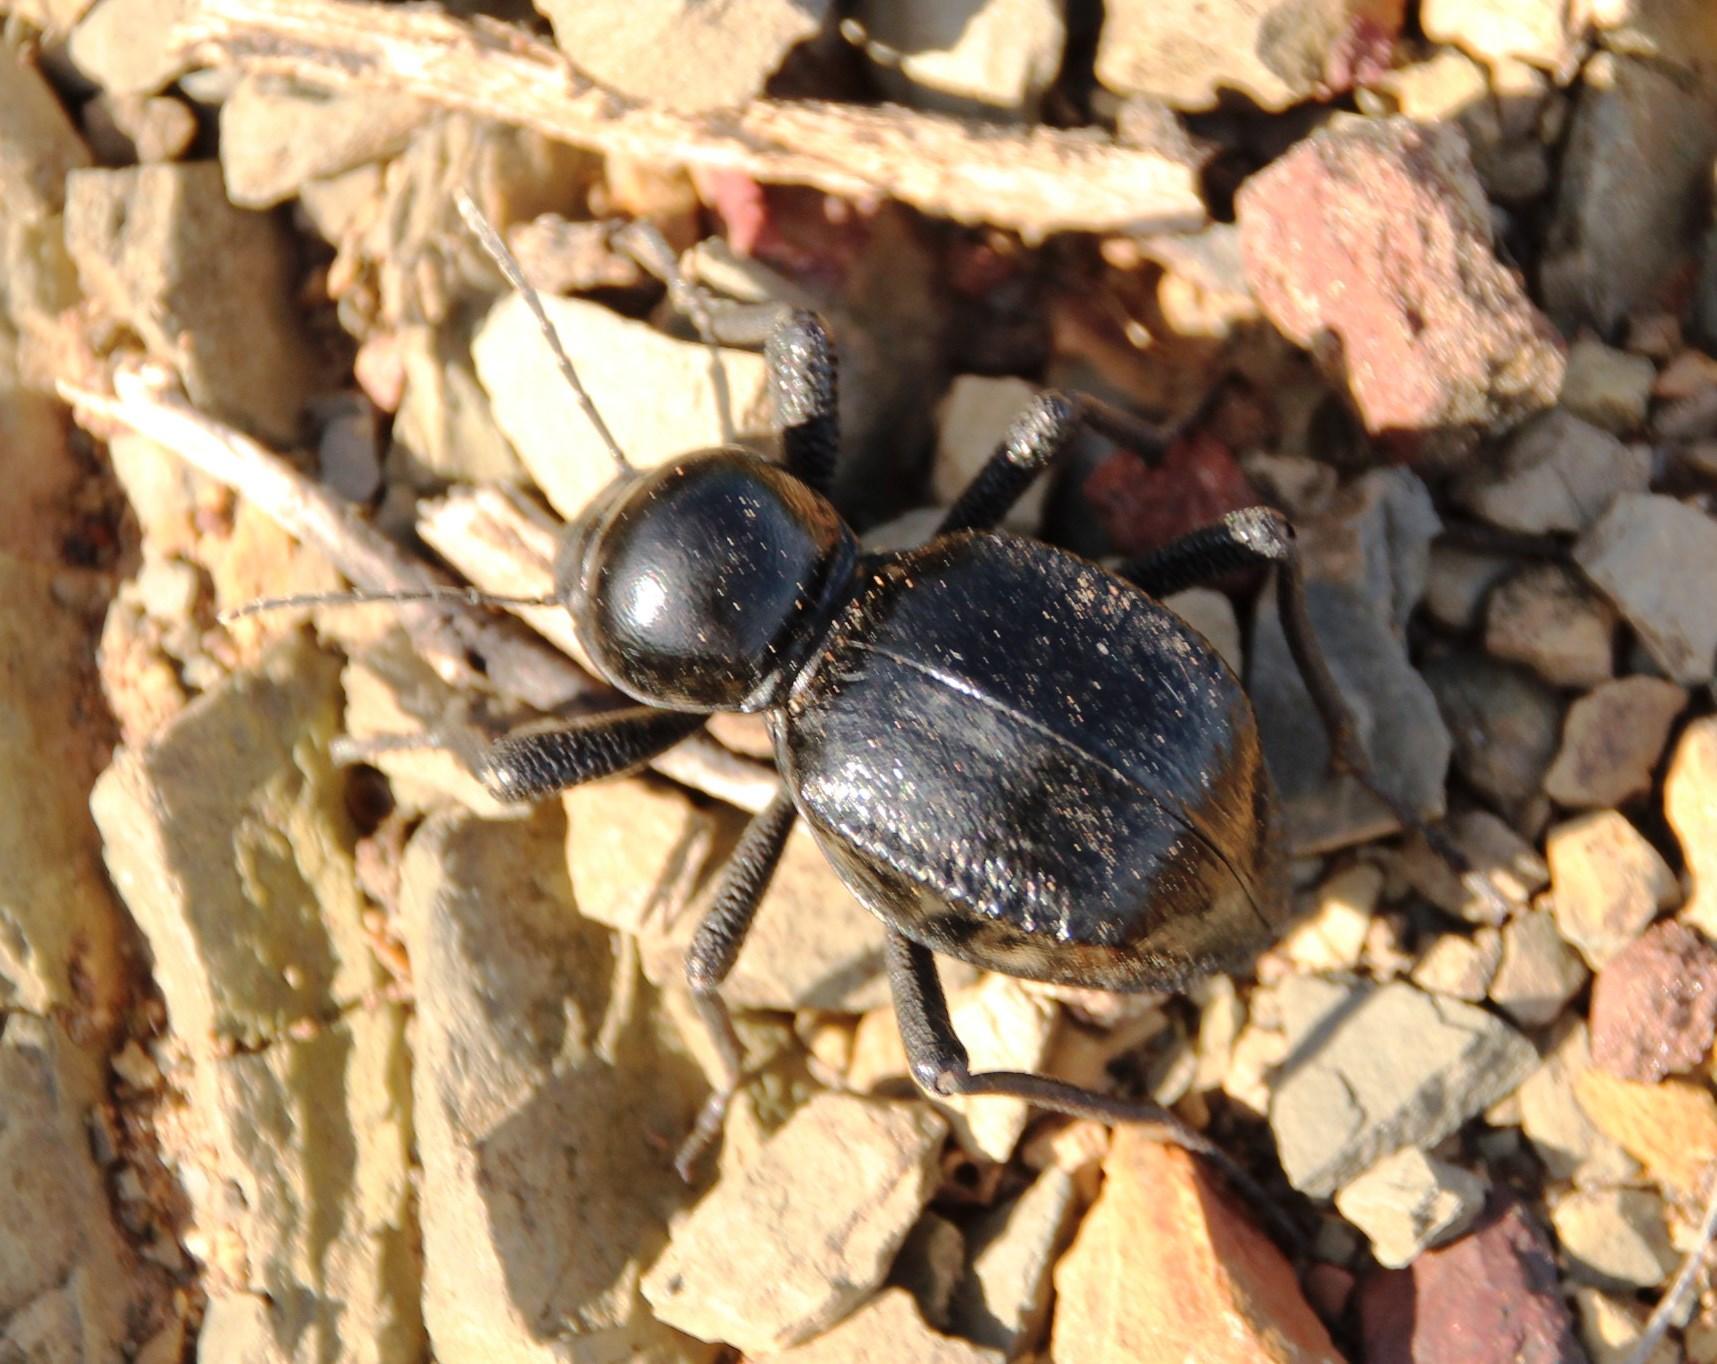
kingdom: Animalia
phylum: Arthropoda
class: Insecta
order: Coleoptera
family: Tenebrionidae
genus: Moluris
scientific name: Moluris gibba
